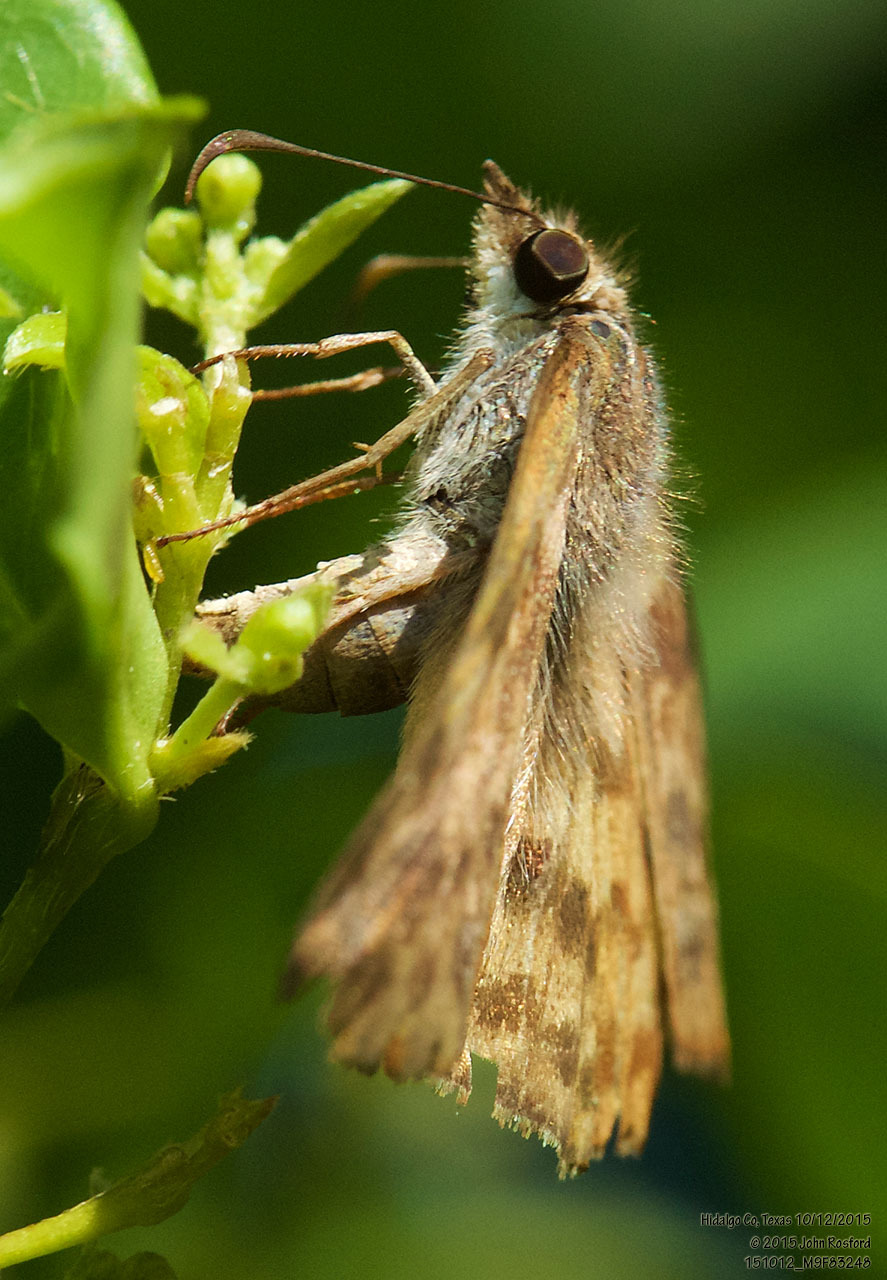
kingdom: Animalia
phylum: Arthropoda
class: Insecta
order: Lepidoptera
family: Hesperiidae
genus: Timochares
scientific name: Timochares ruptifasciata
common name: Brown-banded skipper
